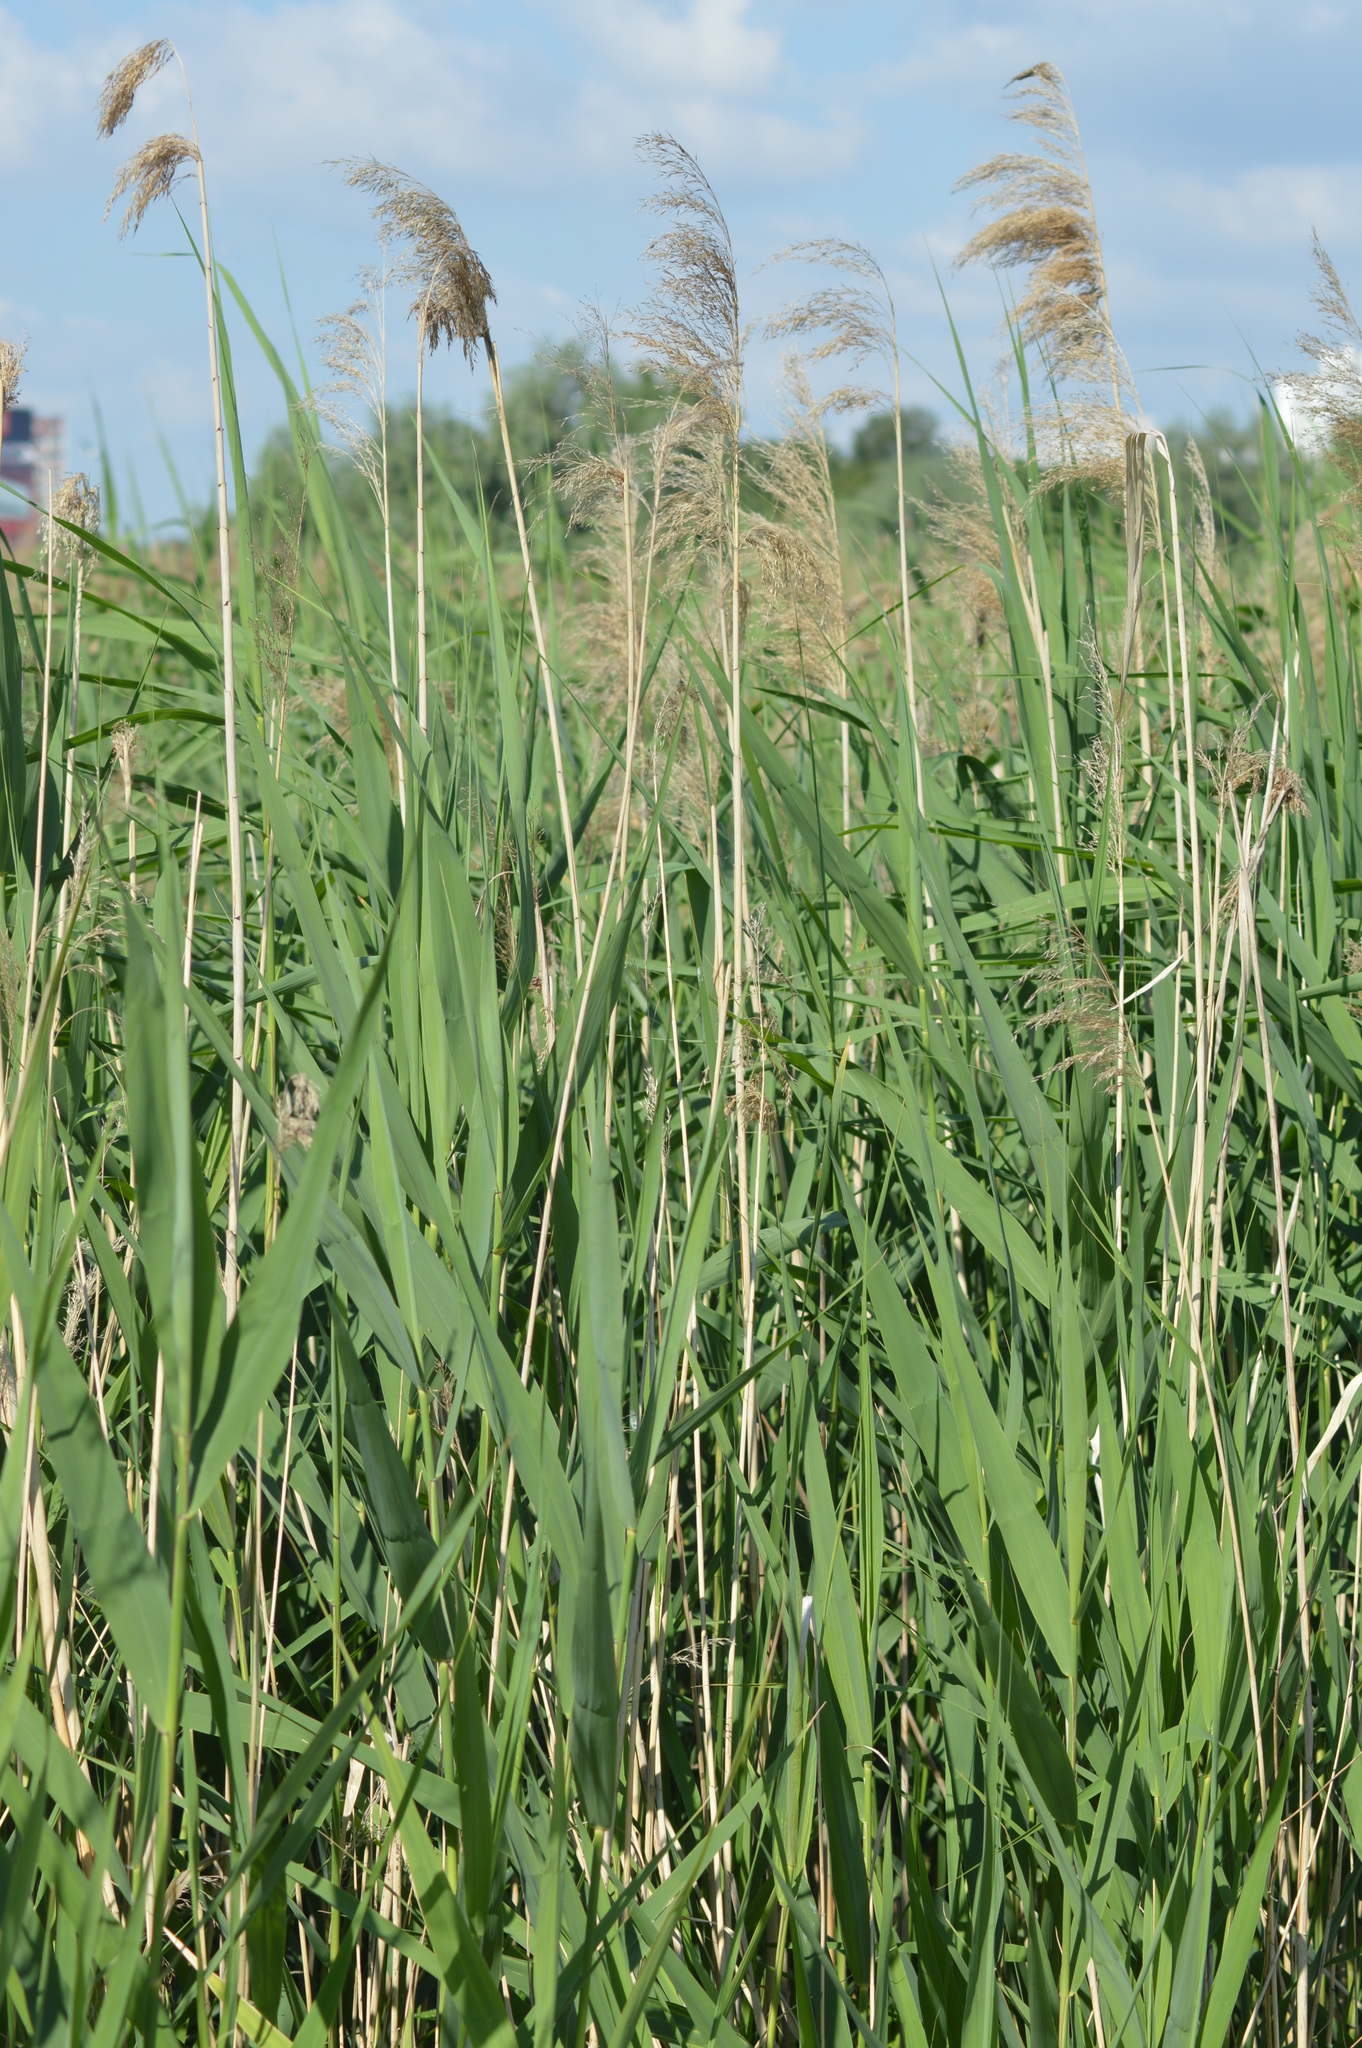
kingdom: Plantae
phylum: Tracheophyta
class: Liliopsida
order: Poales
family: Poaceae
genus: Phragmites
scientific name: Phragmites australis
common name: Common reed
